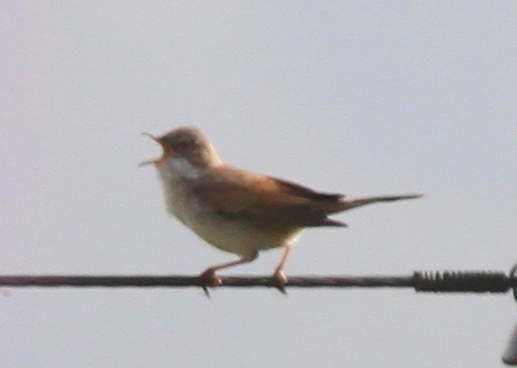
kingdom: Animalia
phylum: Chordata
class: Aves
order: Passeriformes
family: Sylviidae
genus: Sylvia
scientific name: Sylvia conspicillata
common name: Spectacled warbler
